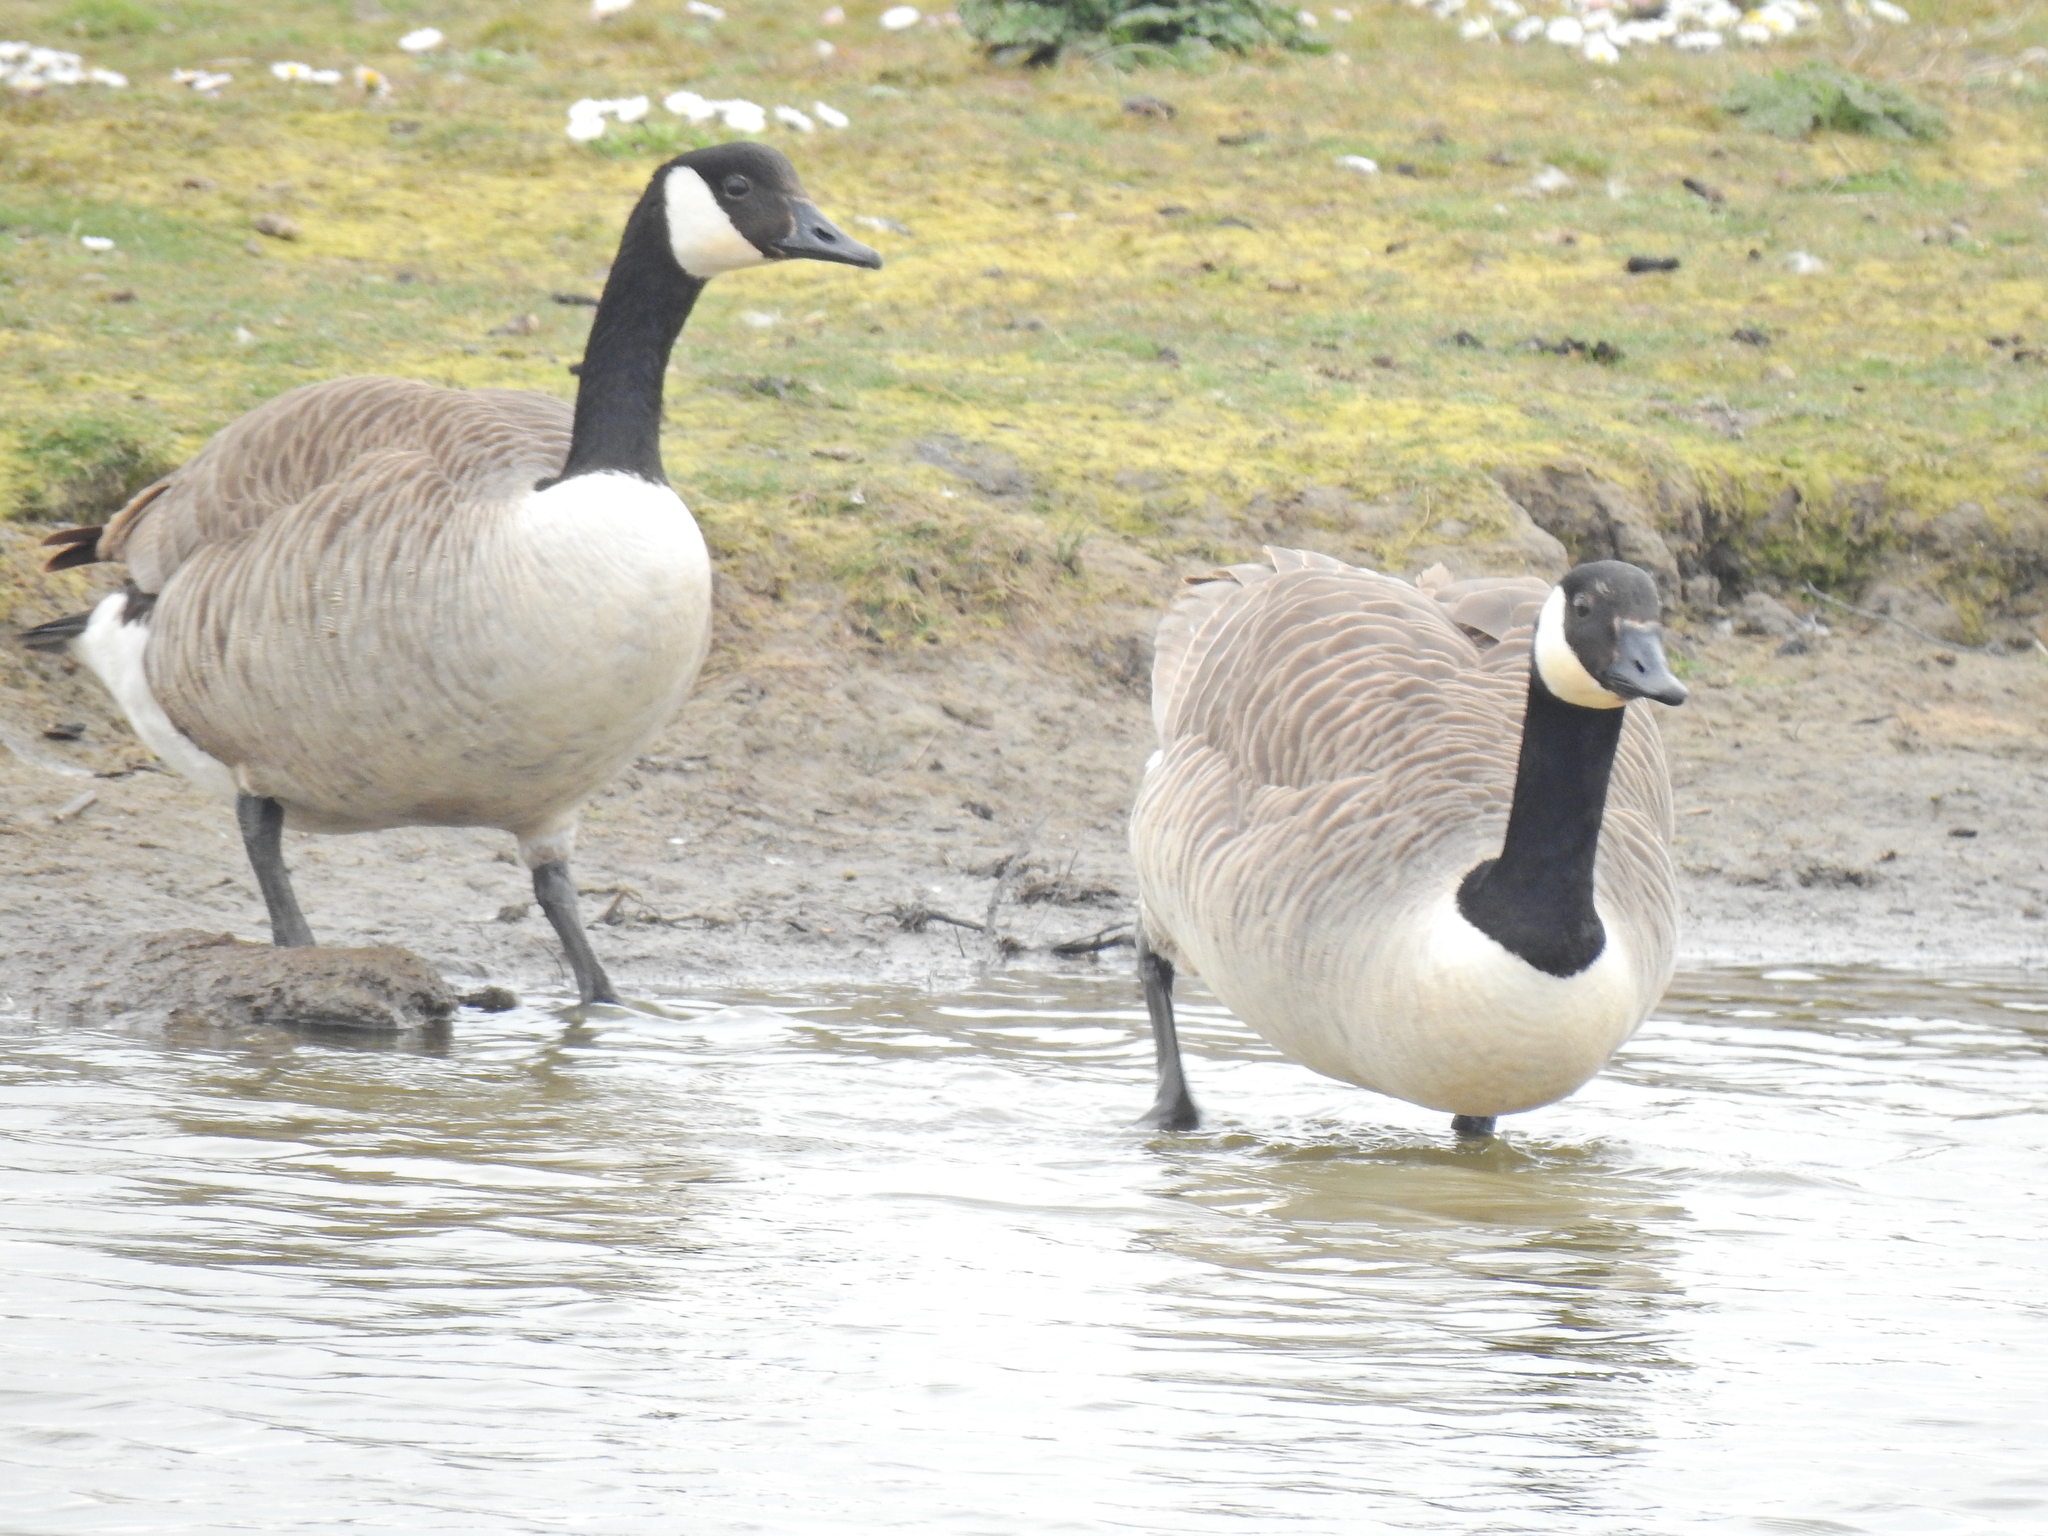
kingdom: Animalia
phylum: Chordata
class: Aves
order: Anseriformes
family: Anatidae
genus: Branta
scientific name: Branta canadensis
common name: Canada goose
